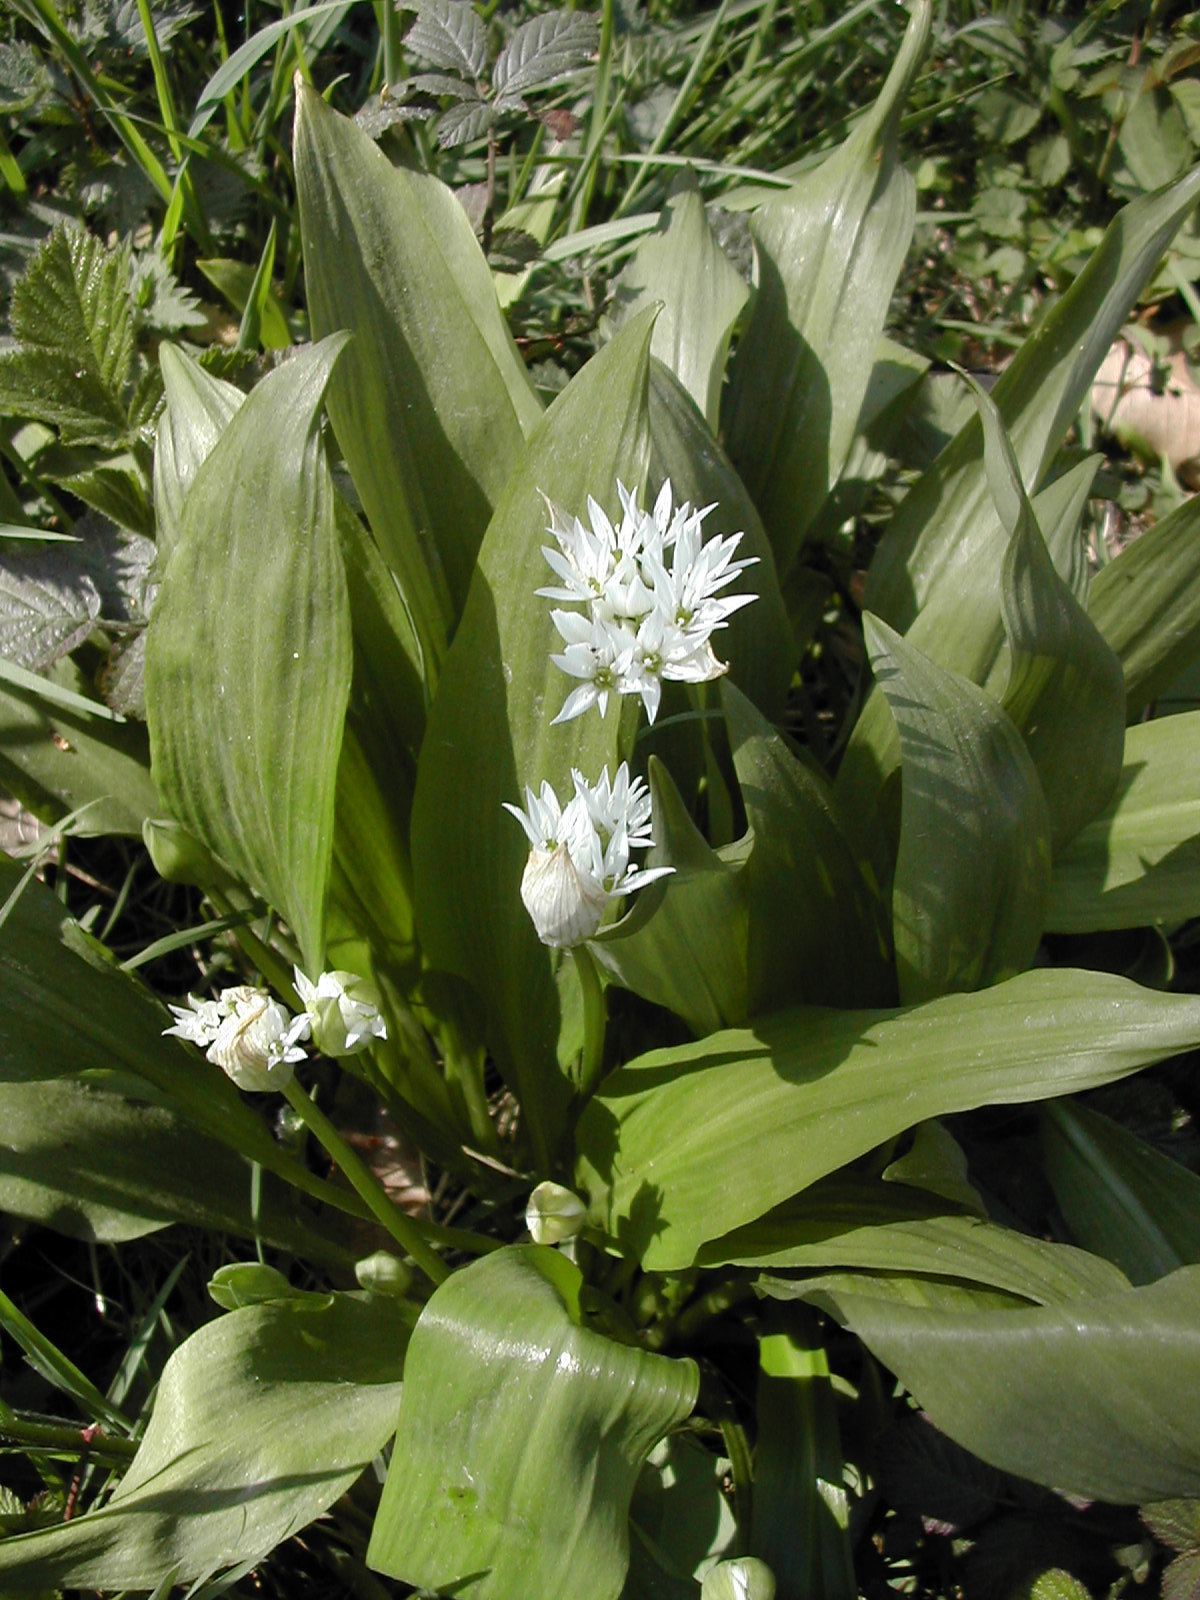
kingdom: Plantae
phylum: Tracheophyta
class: Liliopsida
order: Asparagales
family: Amaryllidaceae
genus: Allium
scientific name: Allium ursinum
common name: Ramsons
